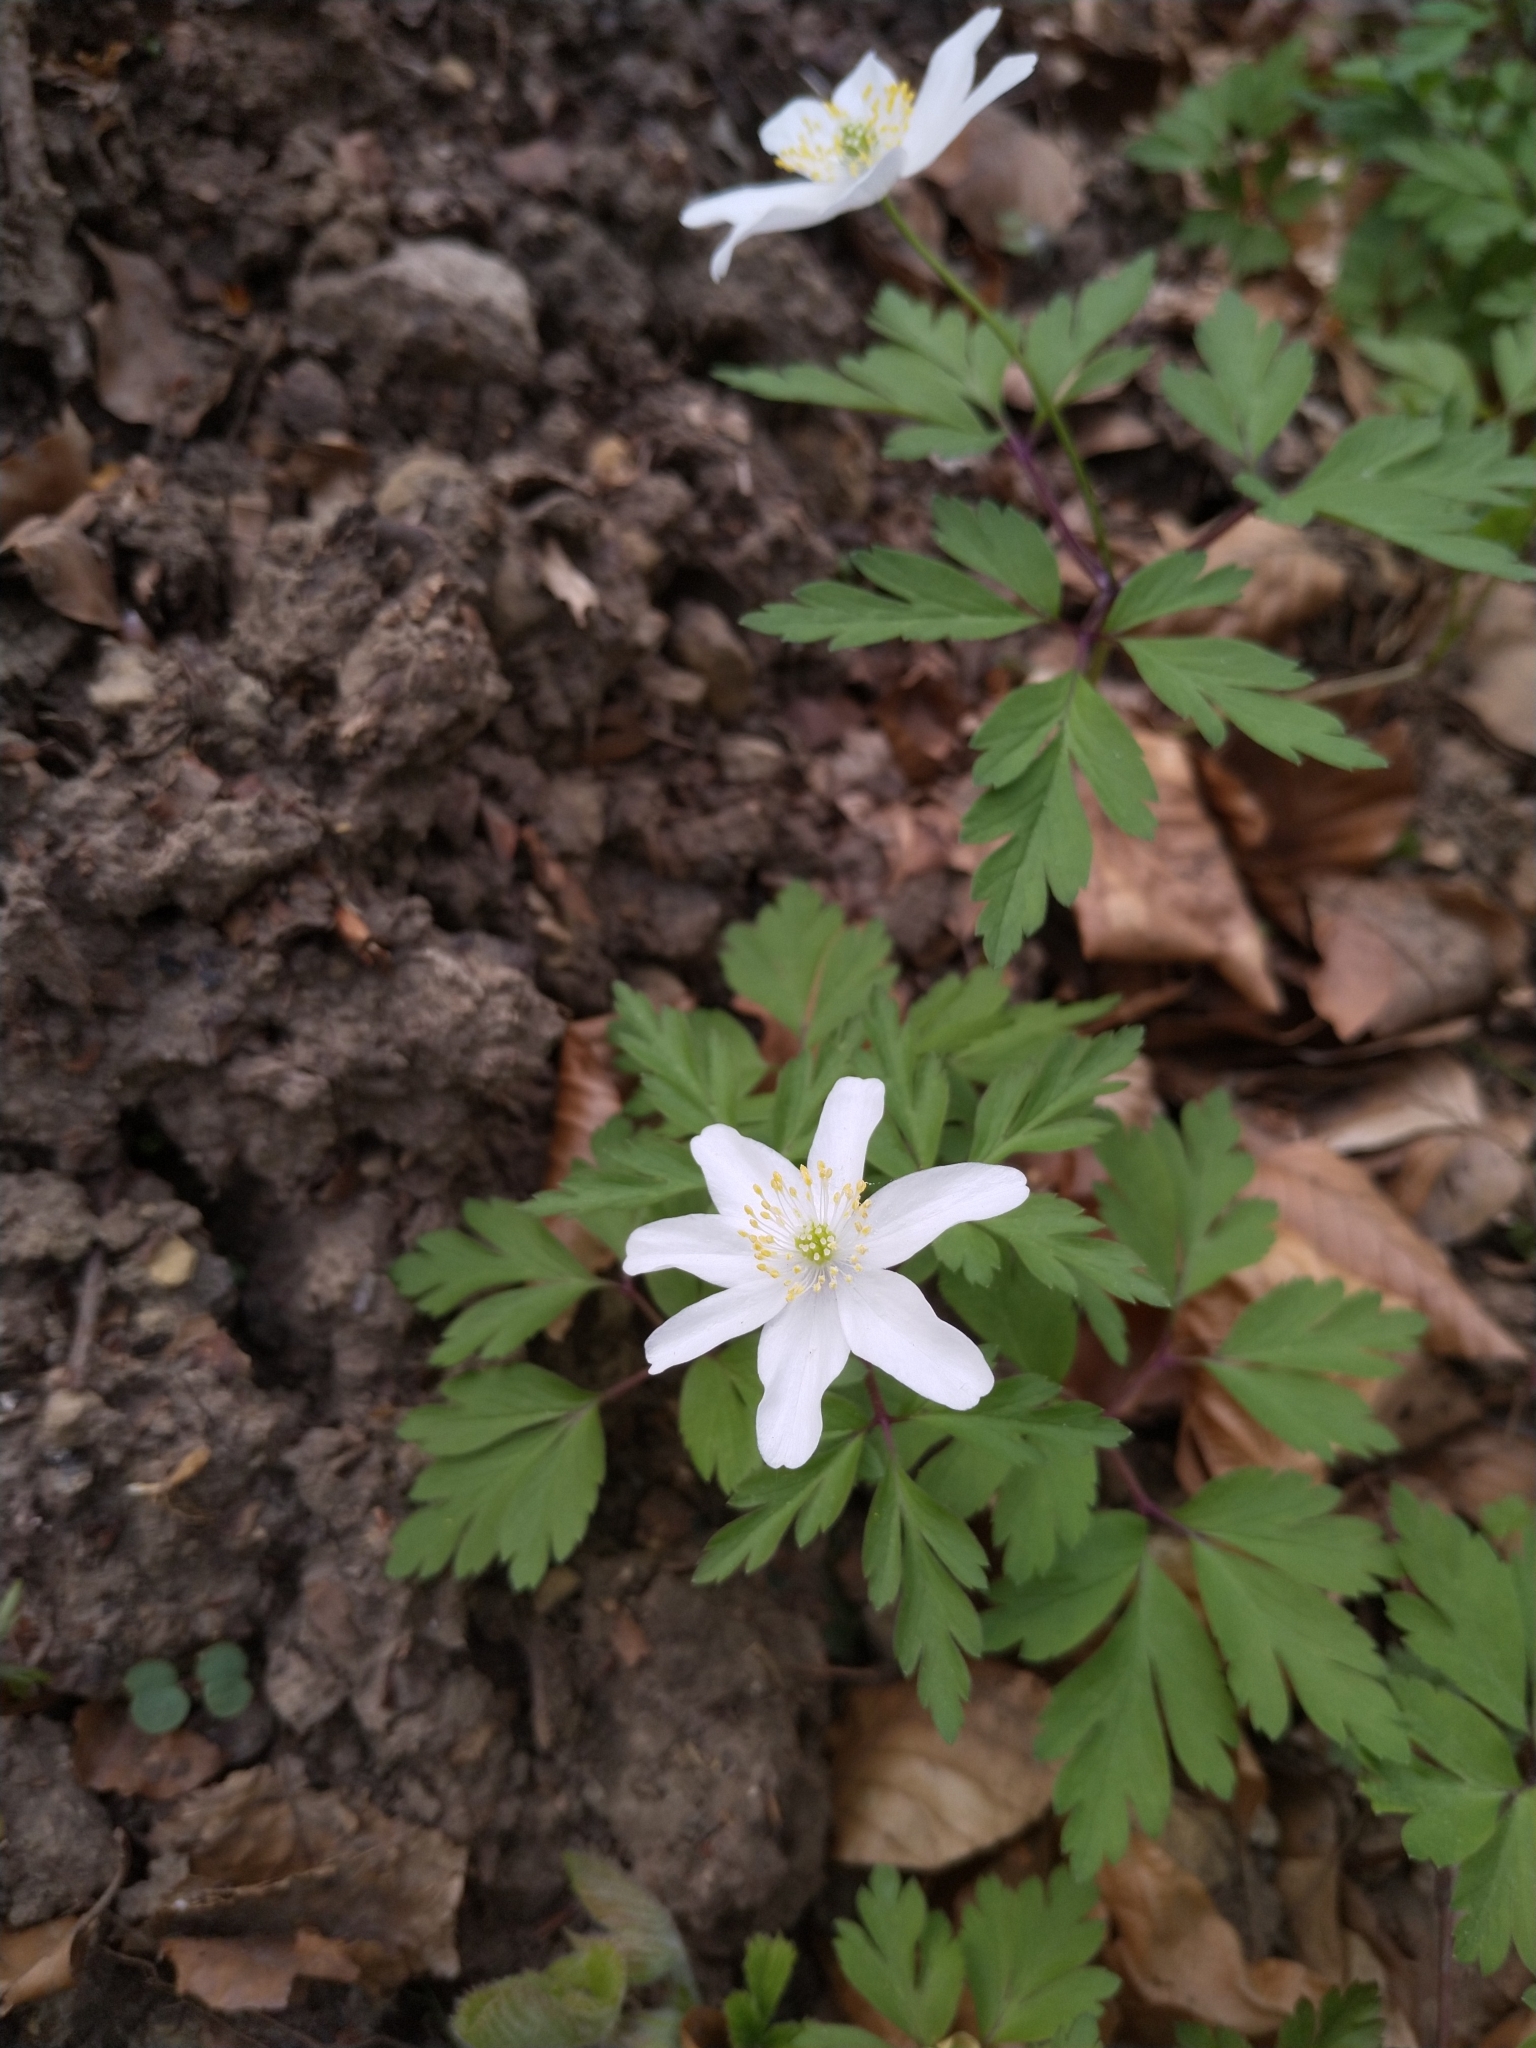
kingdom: Plantae
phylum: Tracheophyta
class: Magnoliopsida
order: Ranunculales
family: Ranunculaceae
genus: Anemone
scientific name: Anemone nemorosa
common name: Wood anemone
